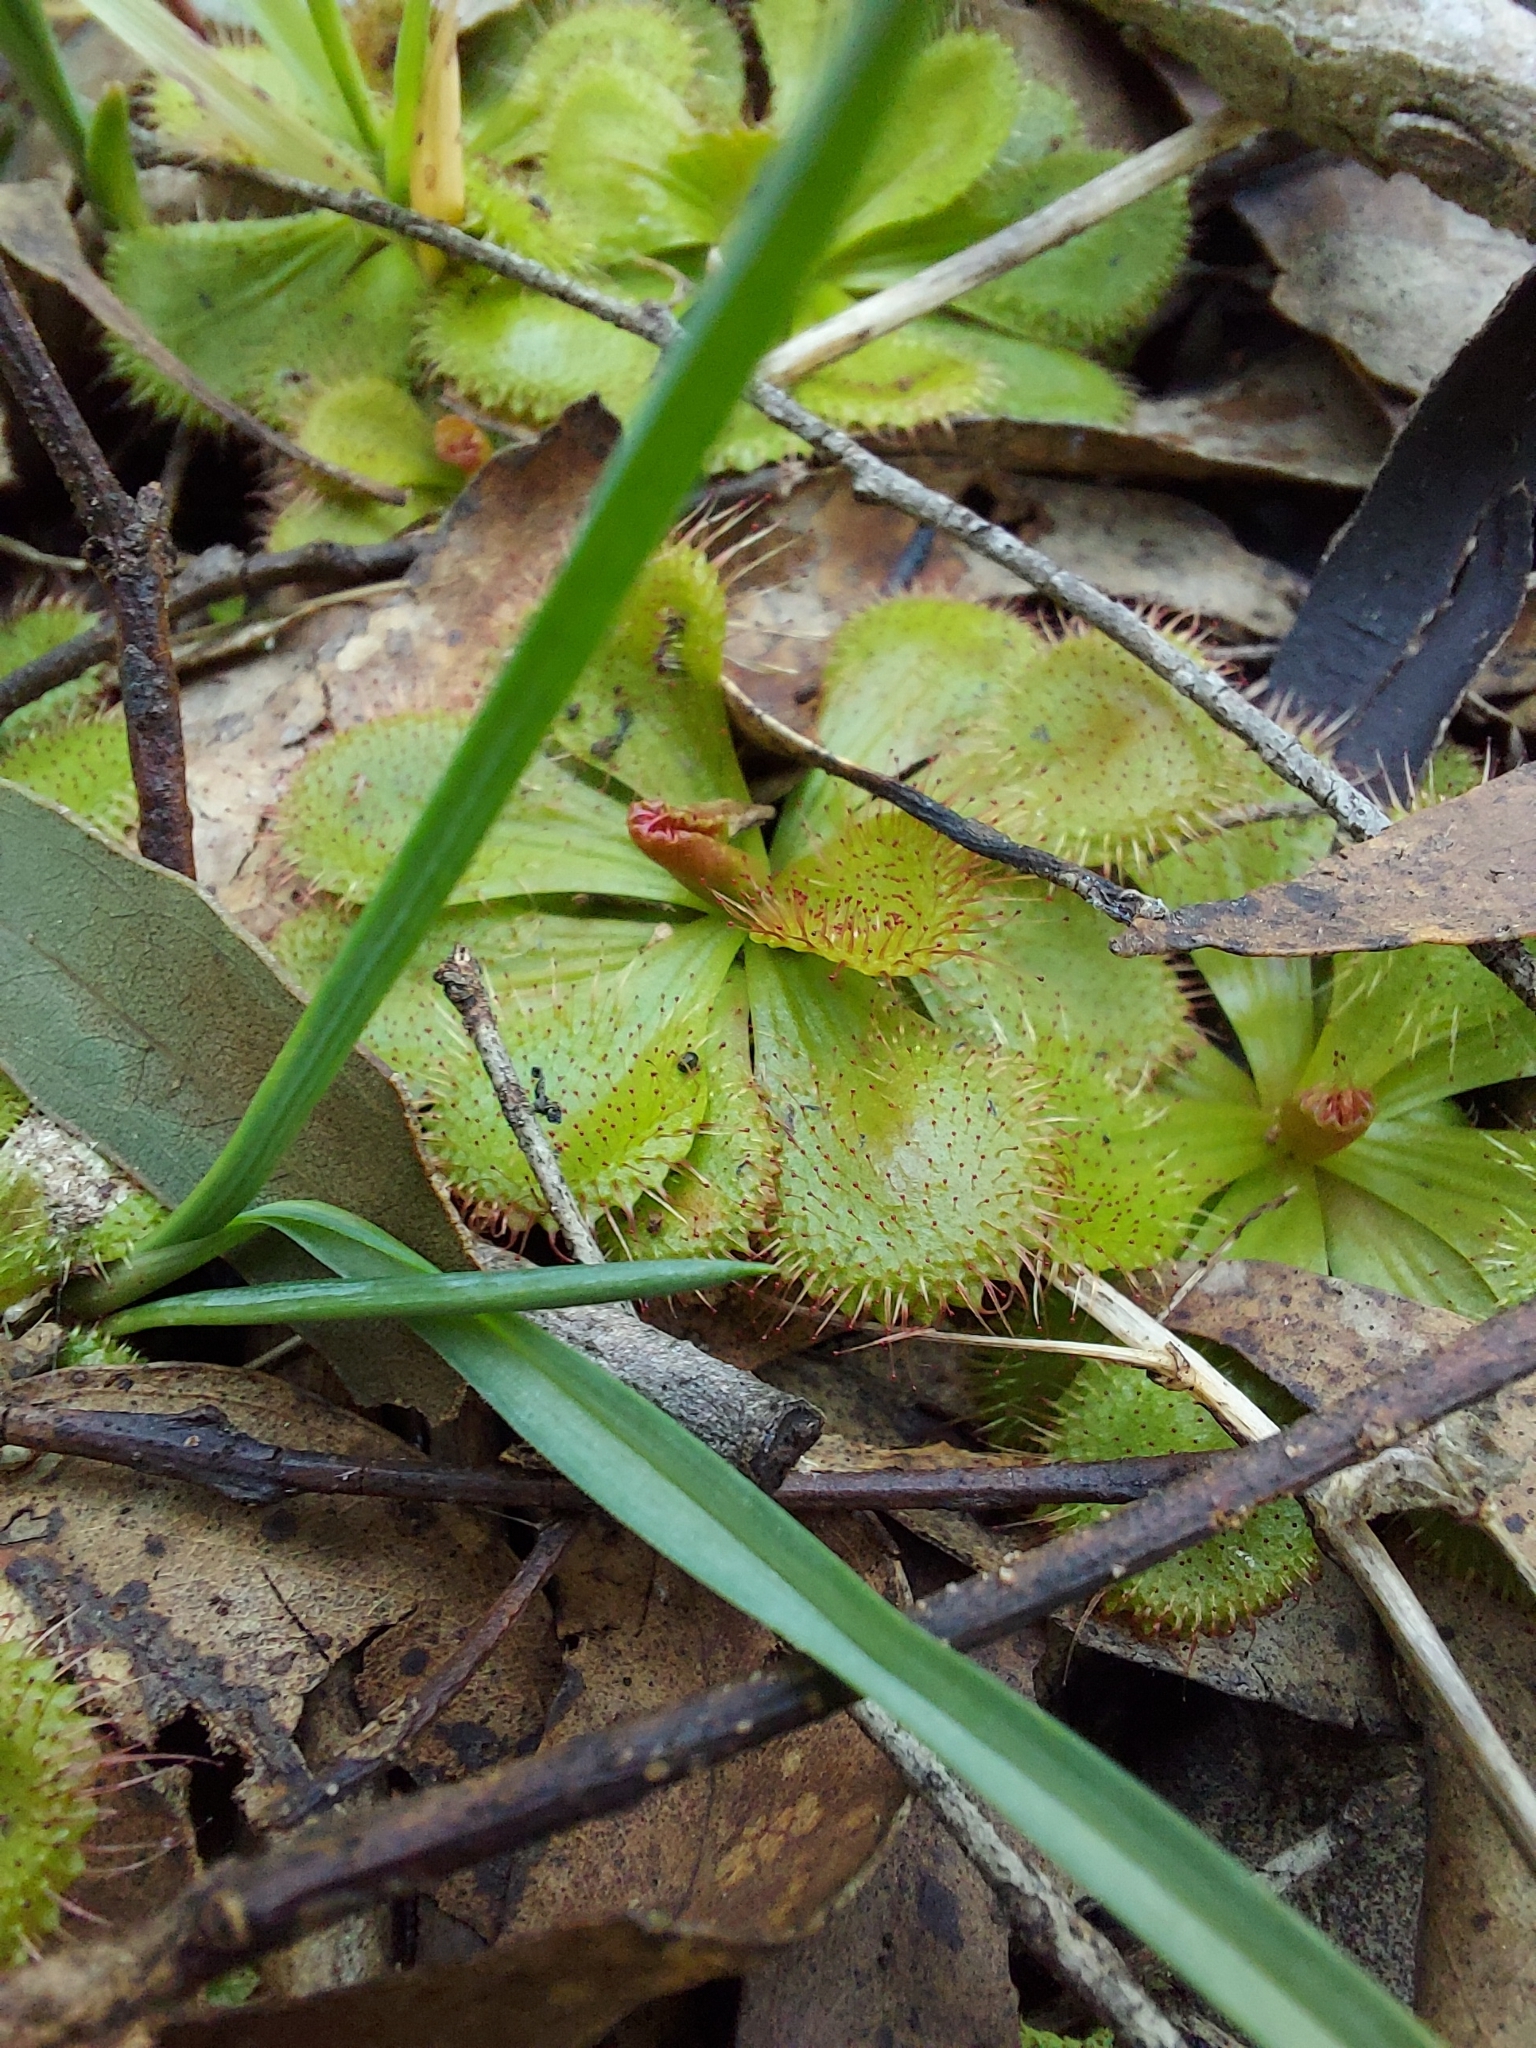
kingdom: Plantae
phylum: Tracheophyta
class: Magnoliopsida
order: Caryophyllales
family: Droseraceae
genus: Drosera
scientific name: Drosera aberrans
